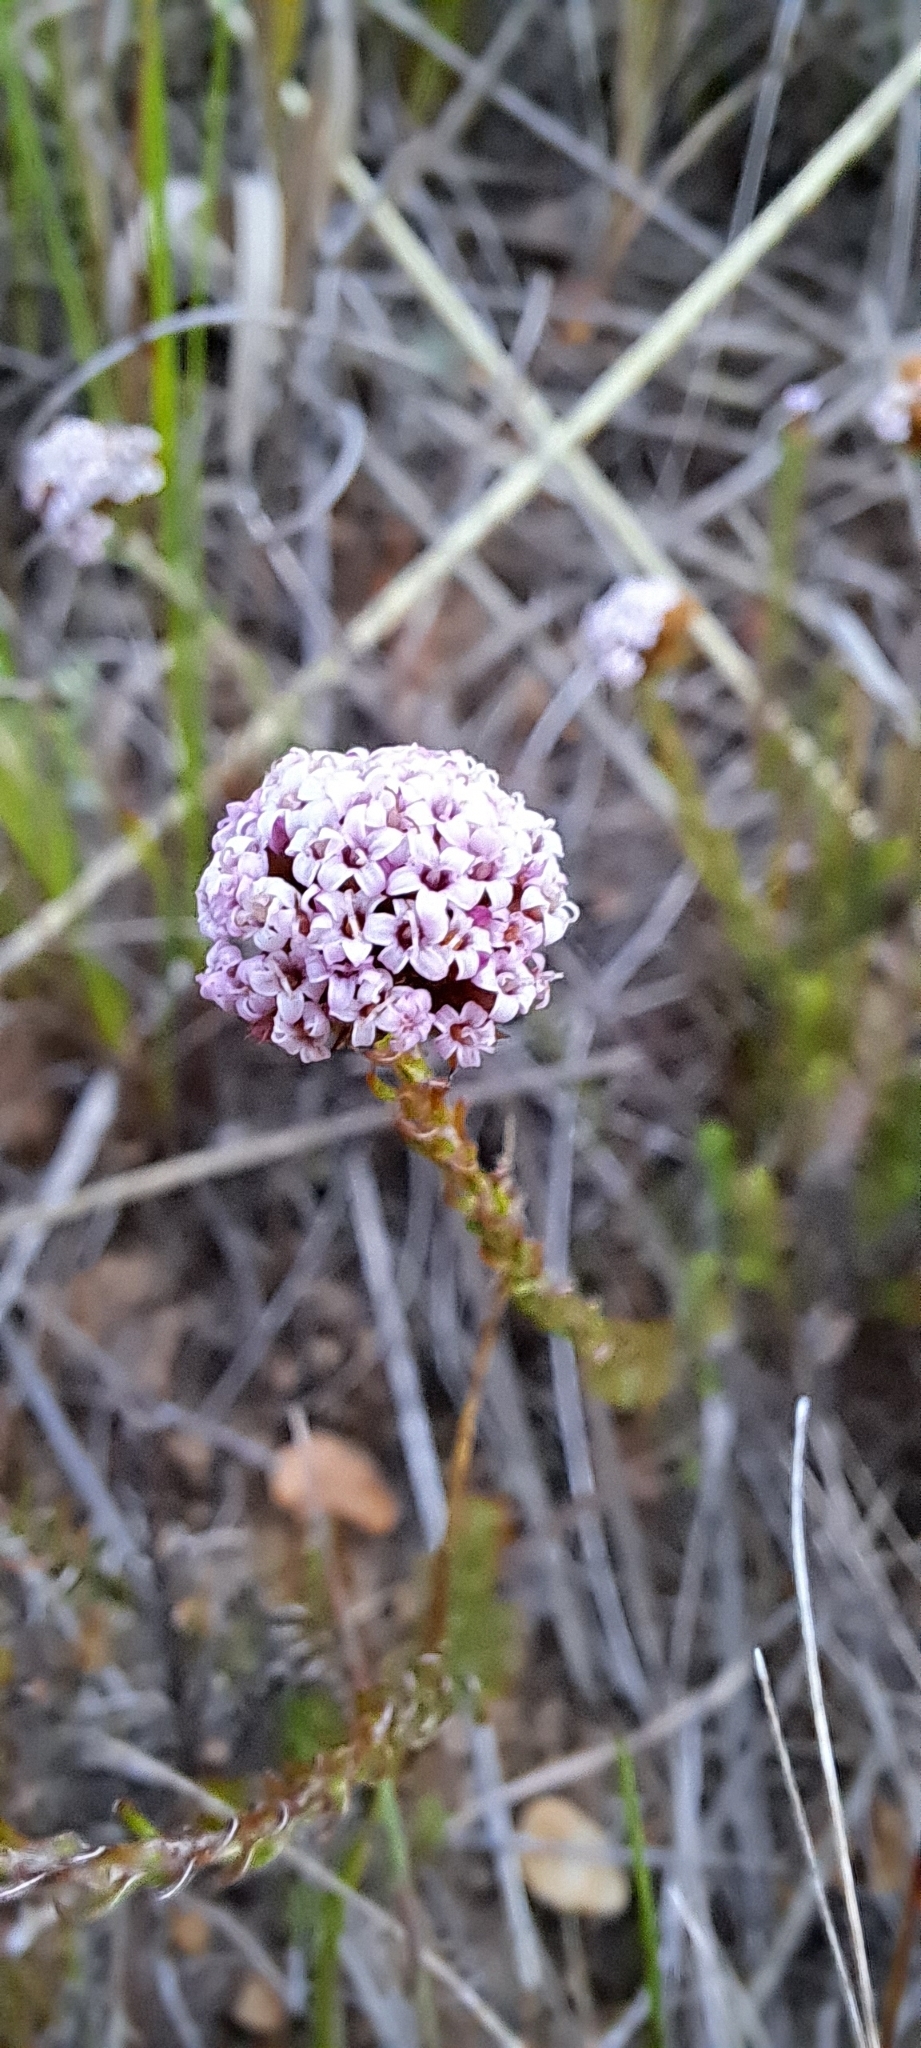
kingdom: Plantae
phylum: Tracheophyta
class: Magnoliopsida
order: Asterales
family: Asteraceae
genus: Stoebe
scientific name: Stoebe capitata
